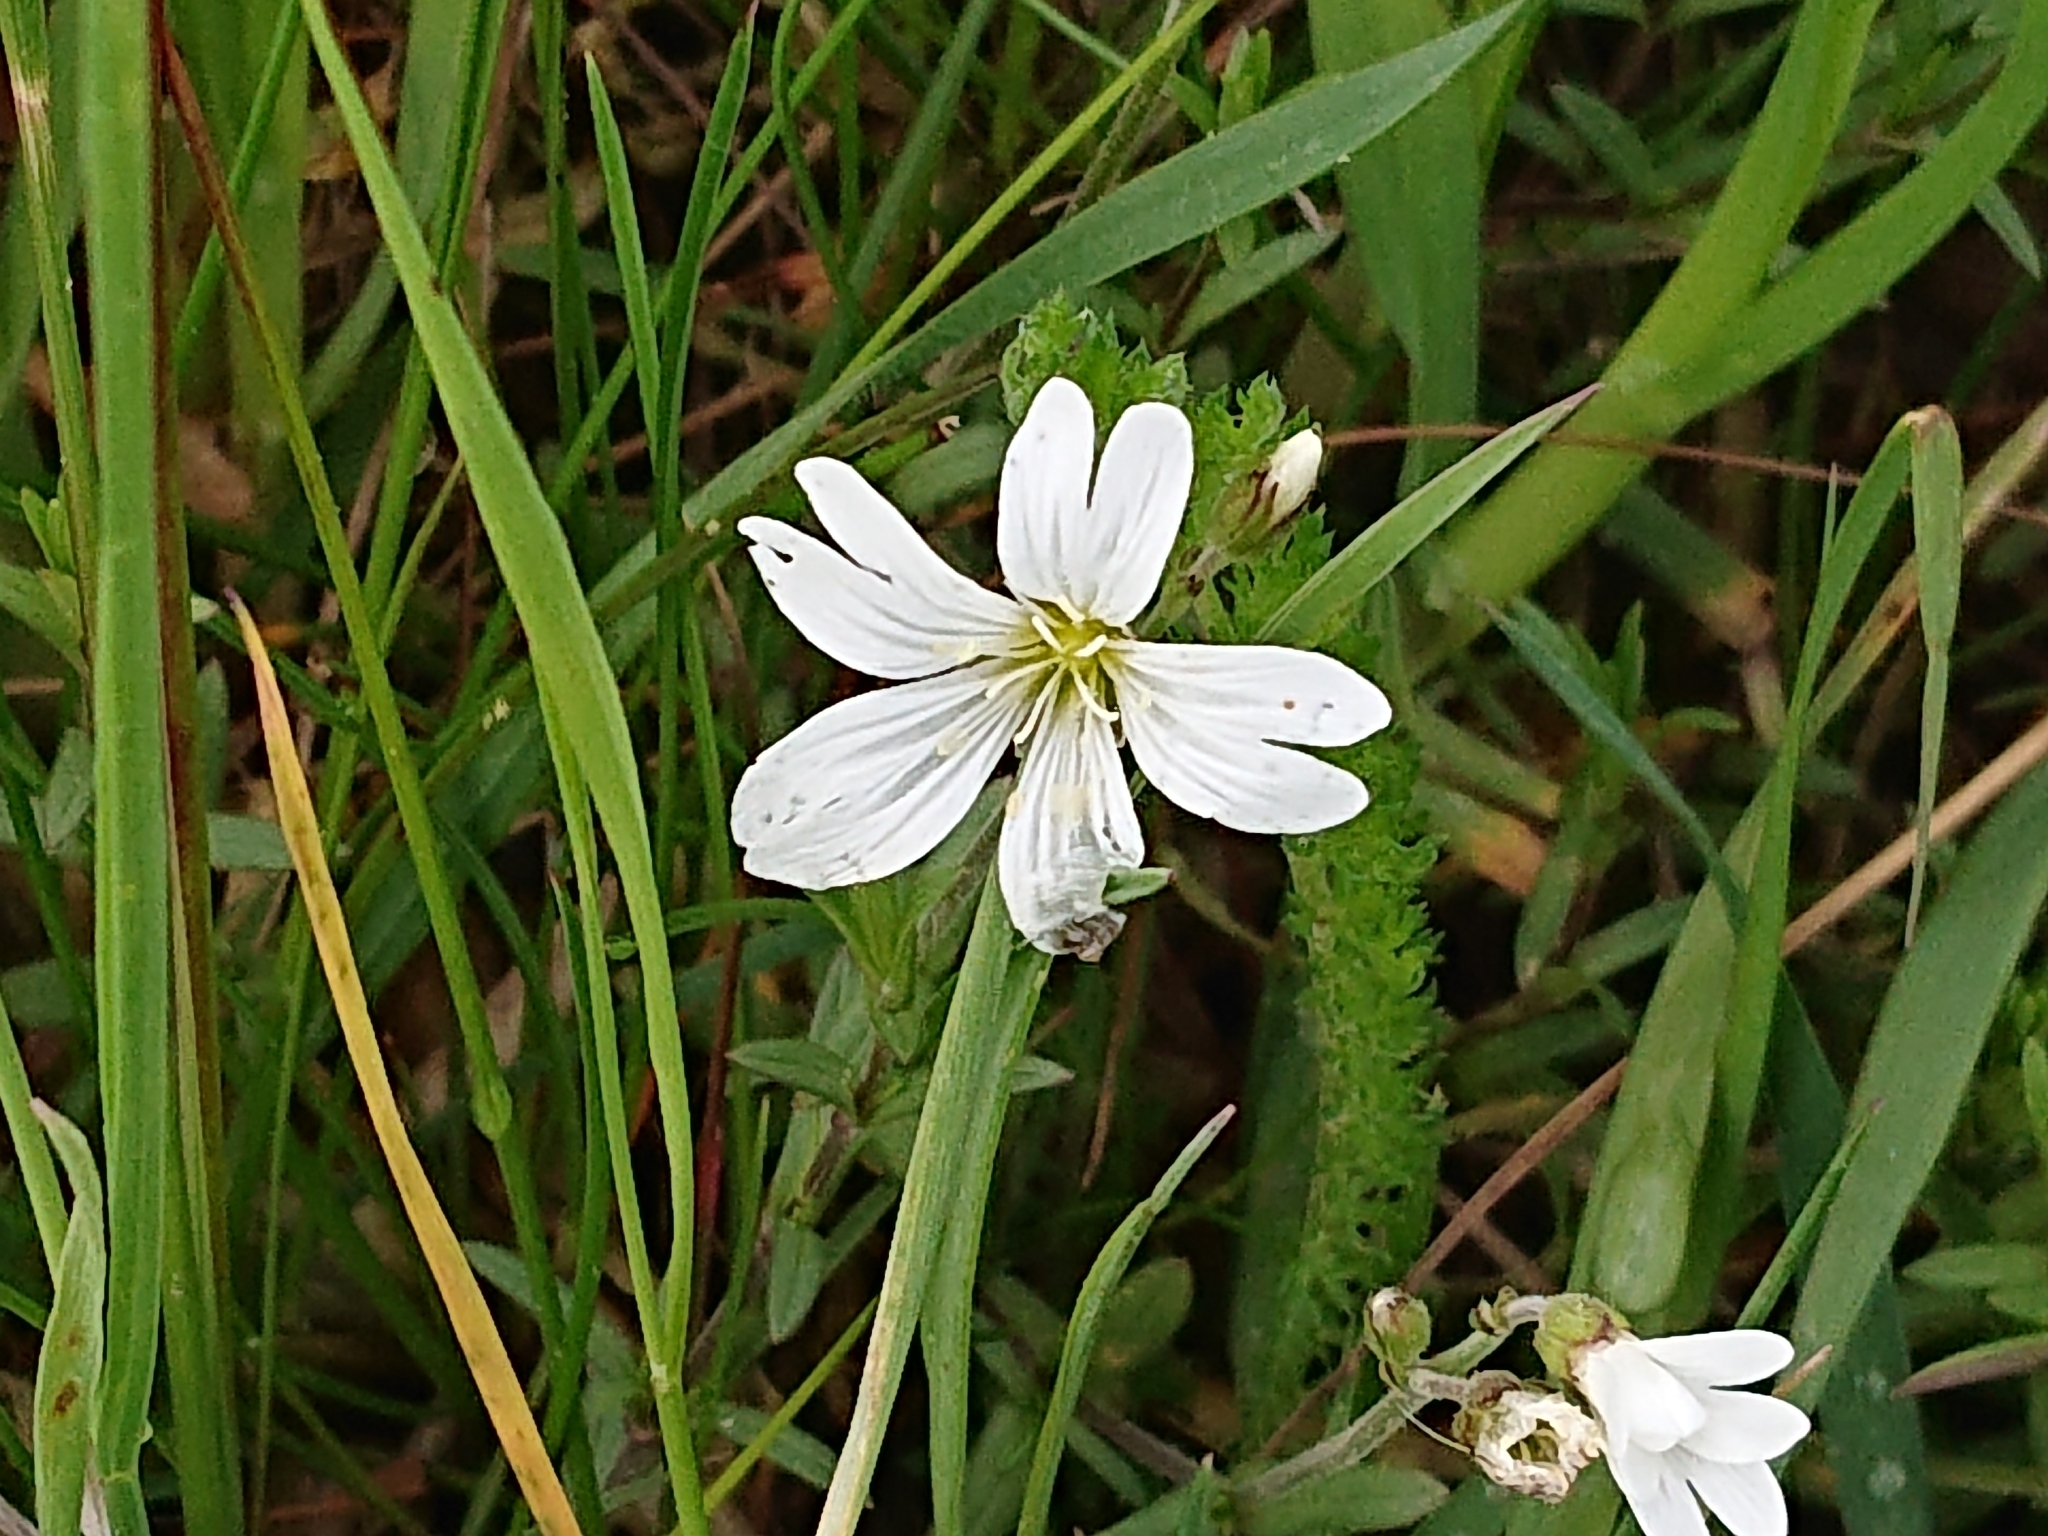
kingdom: Plantae
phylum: Tracheophyta
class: Magnoliopsida
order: Caryophyllales
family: Caryophyllaceae
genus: Rabelera
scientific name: Rabelera holostea
